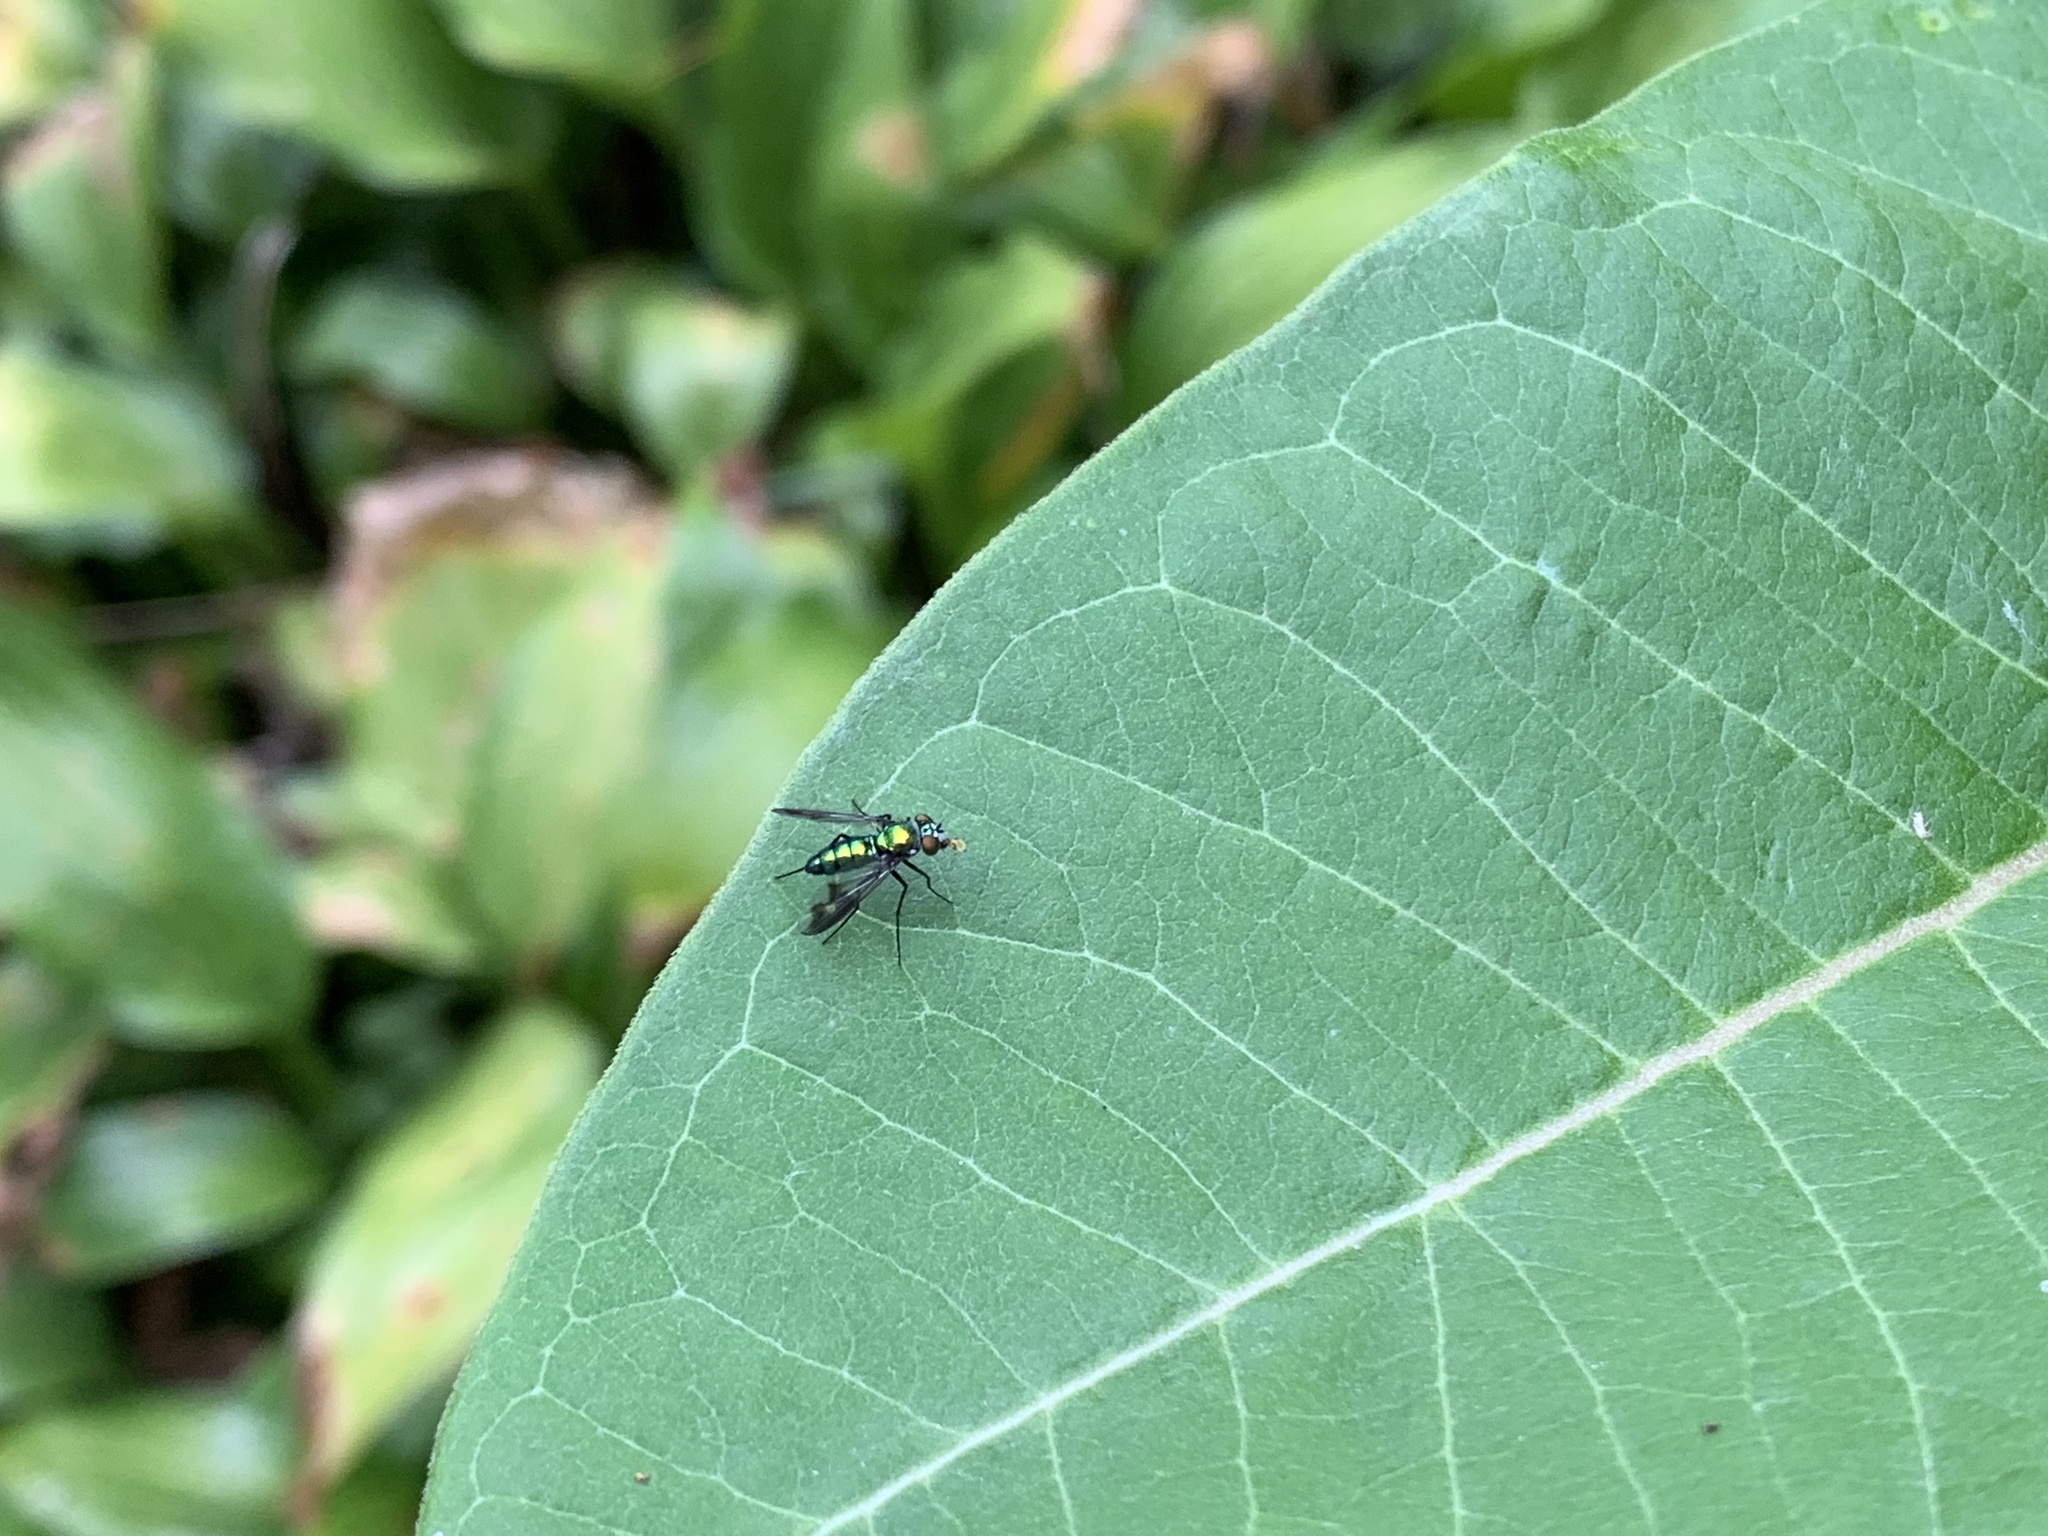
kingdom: Animalia
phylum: Arthropoda
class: Insecta
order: Diptera
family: Dolichopodidae
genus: Condylostylus
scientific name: Condylostylus patibulatus
